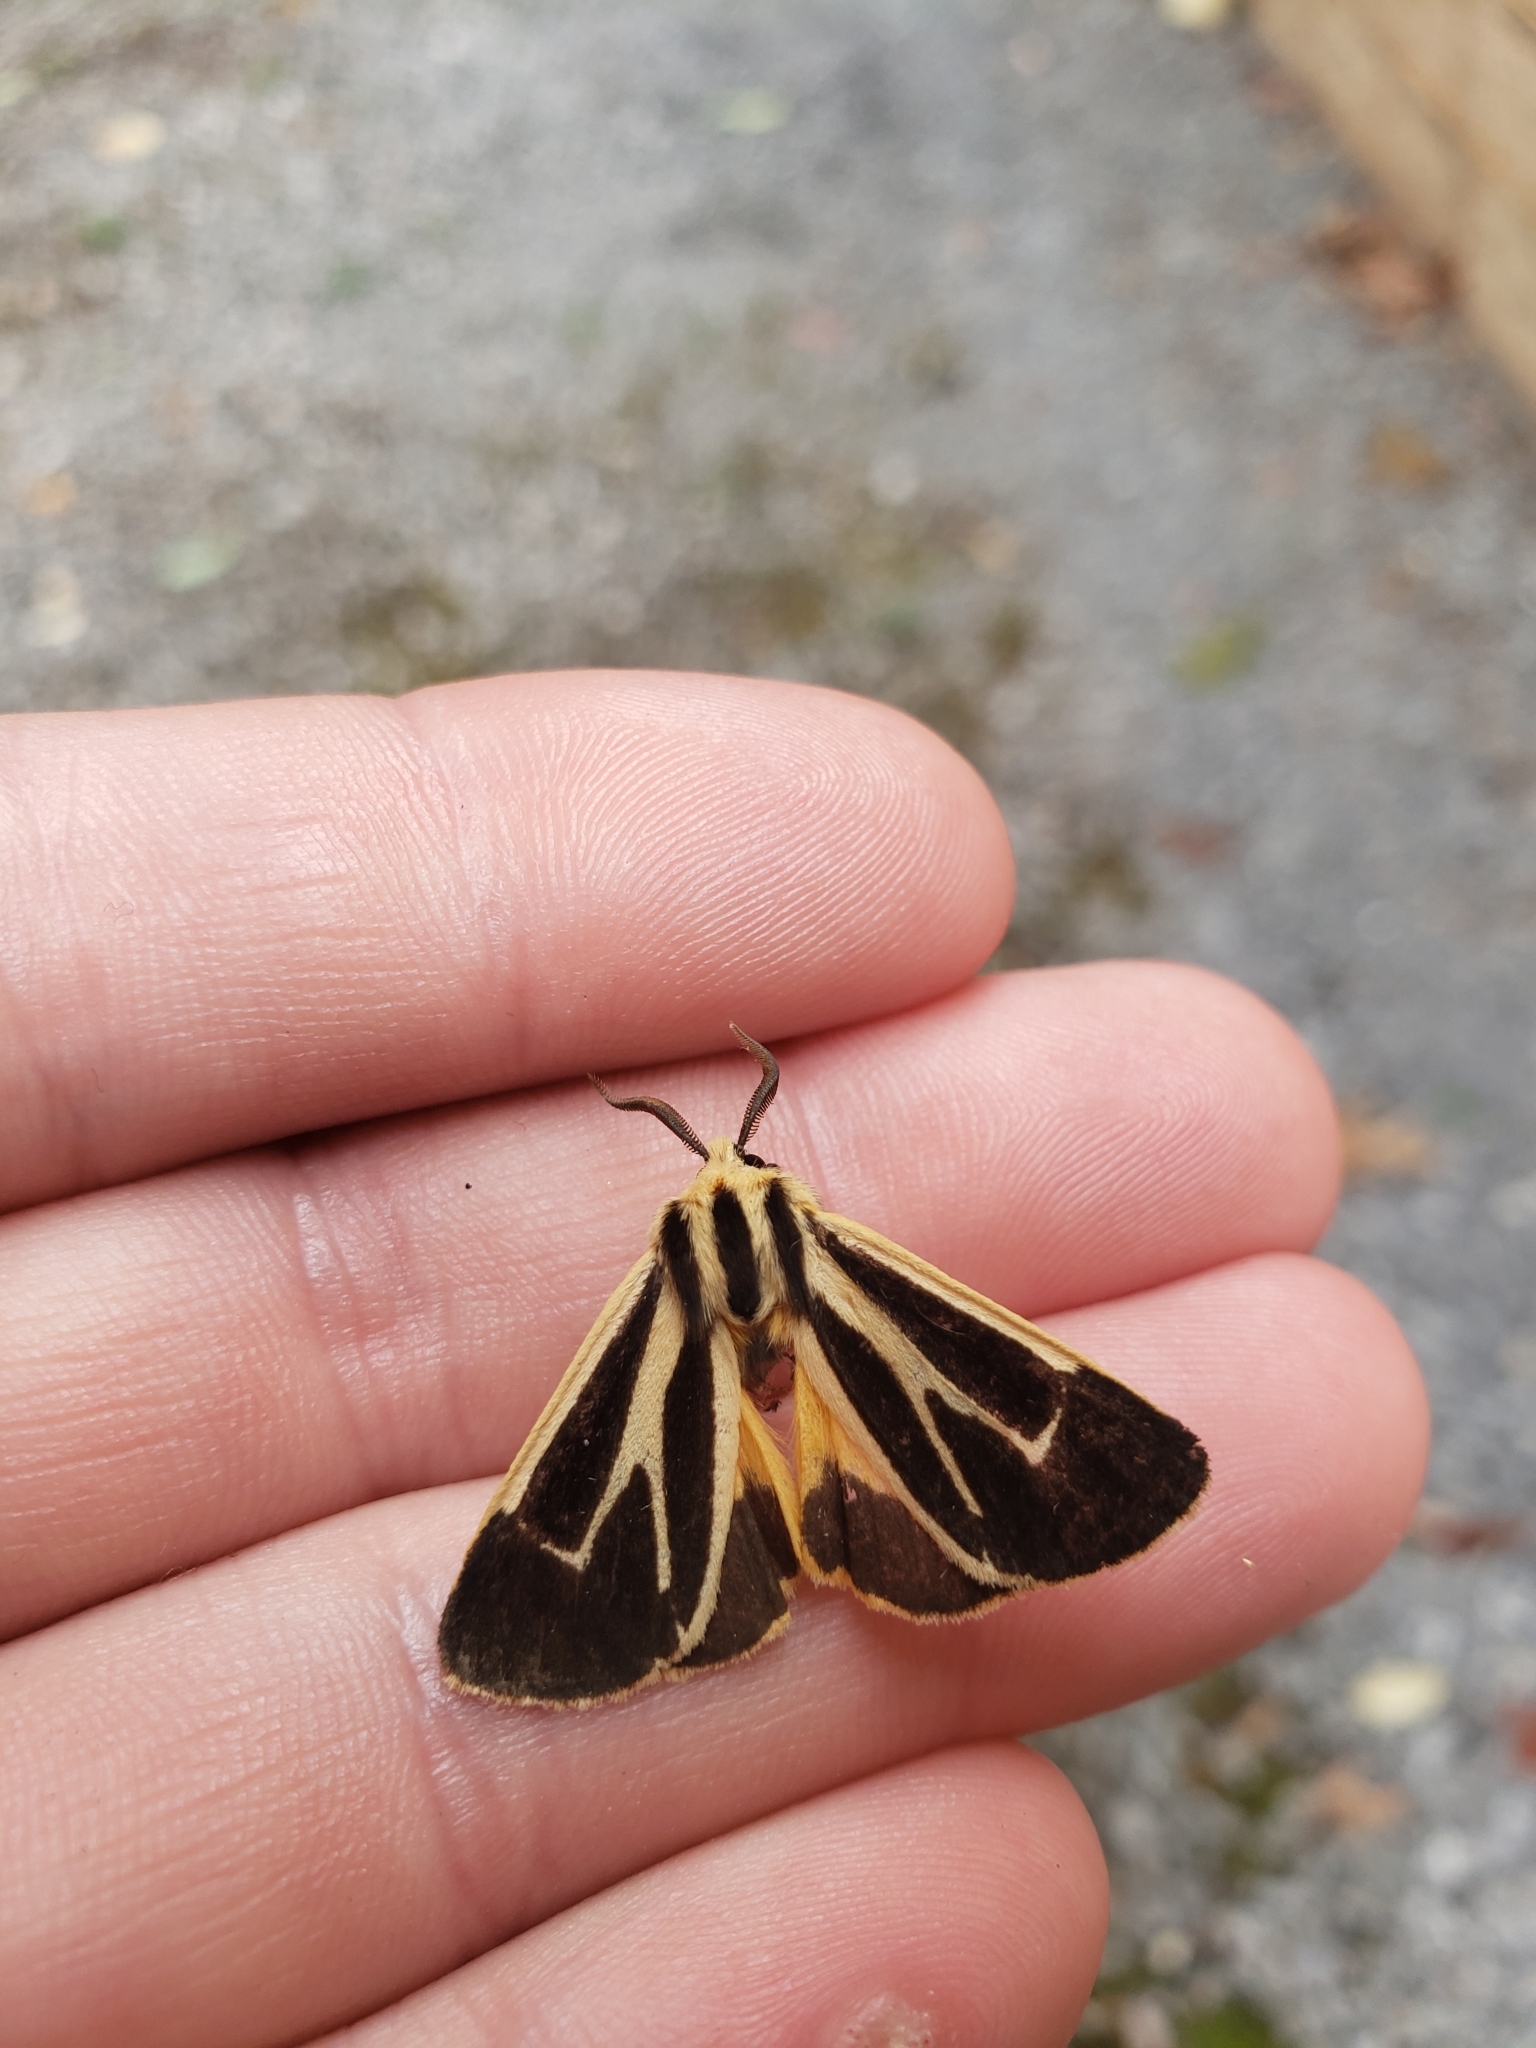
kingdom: Animalia
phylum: Arthropoda
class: Insecta
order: Lepidoptera
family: Erebidae
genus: Apantesis
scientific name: Apantesis nais
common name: Nais tiger moth
